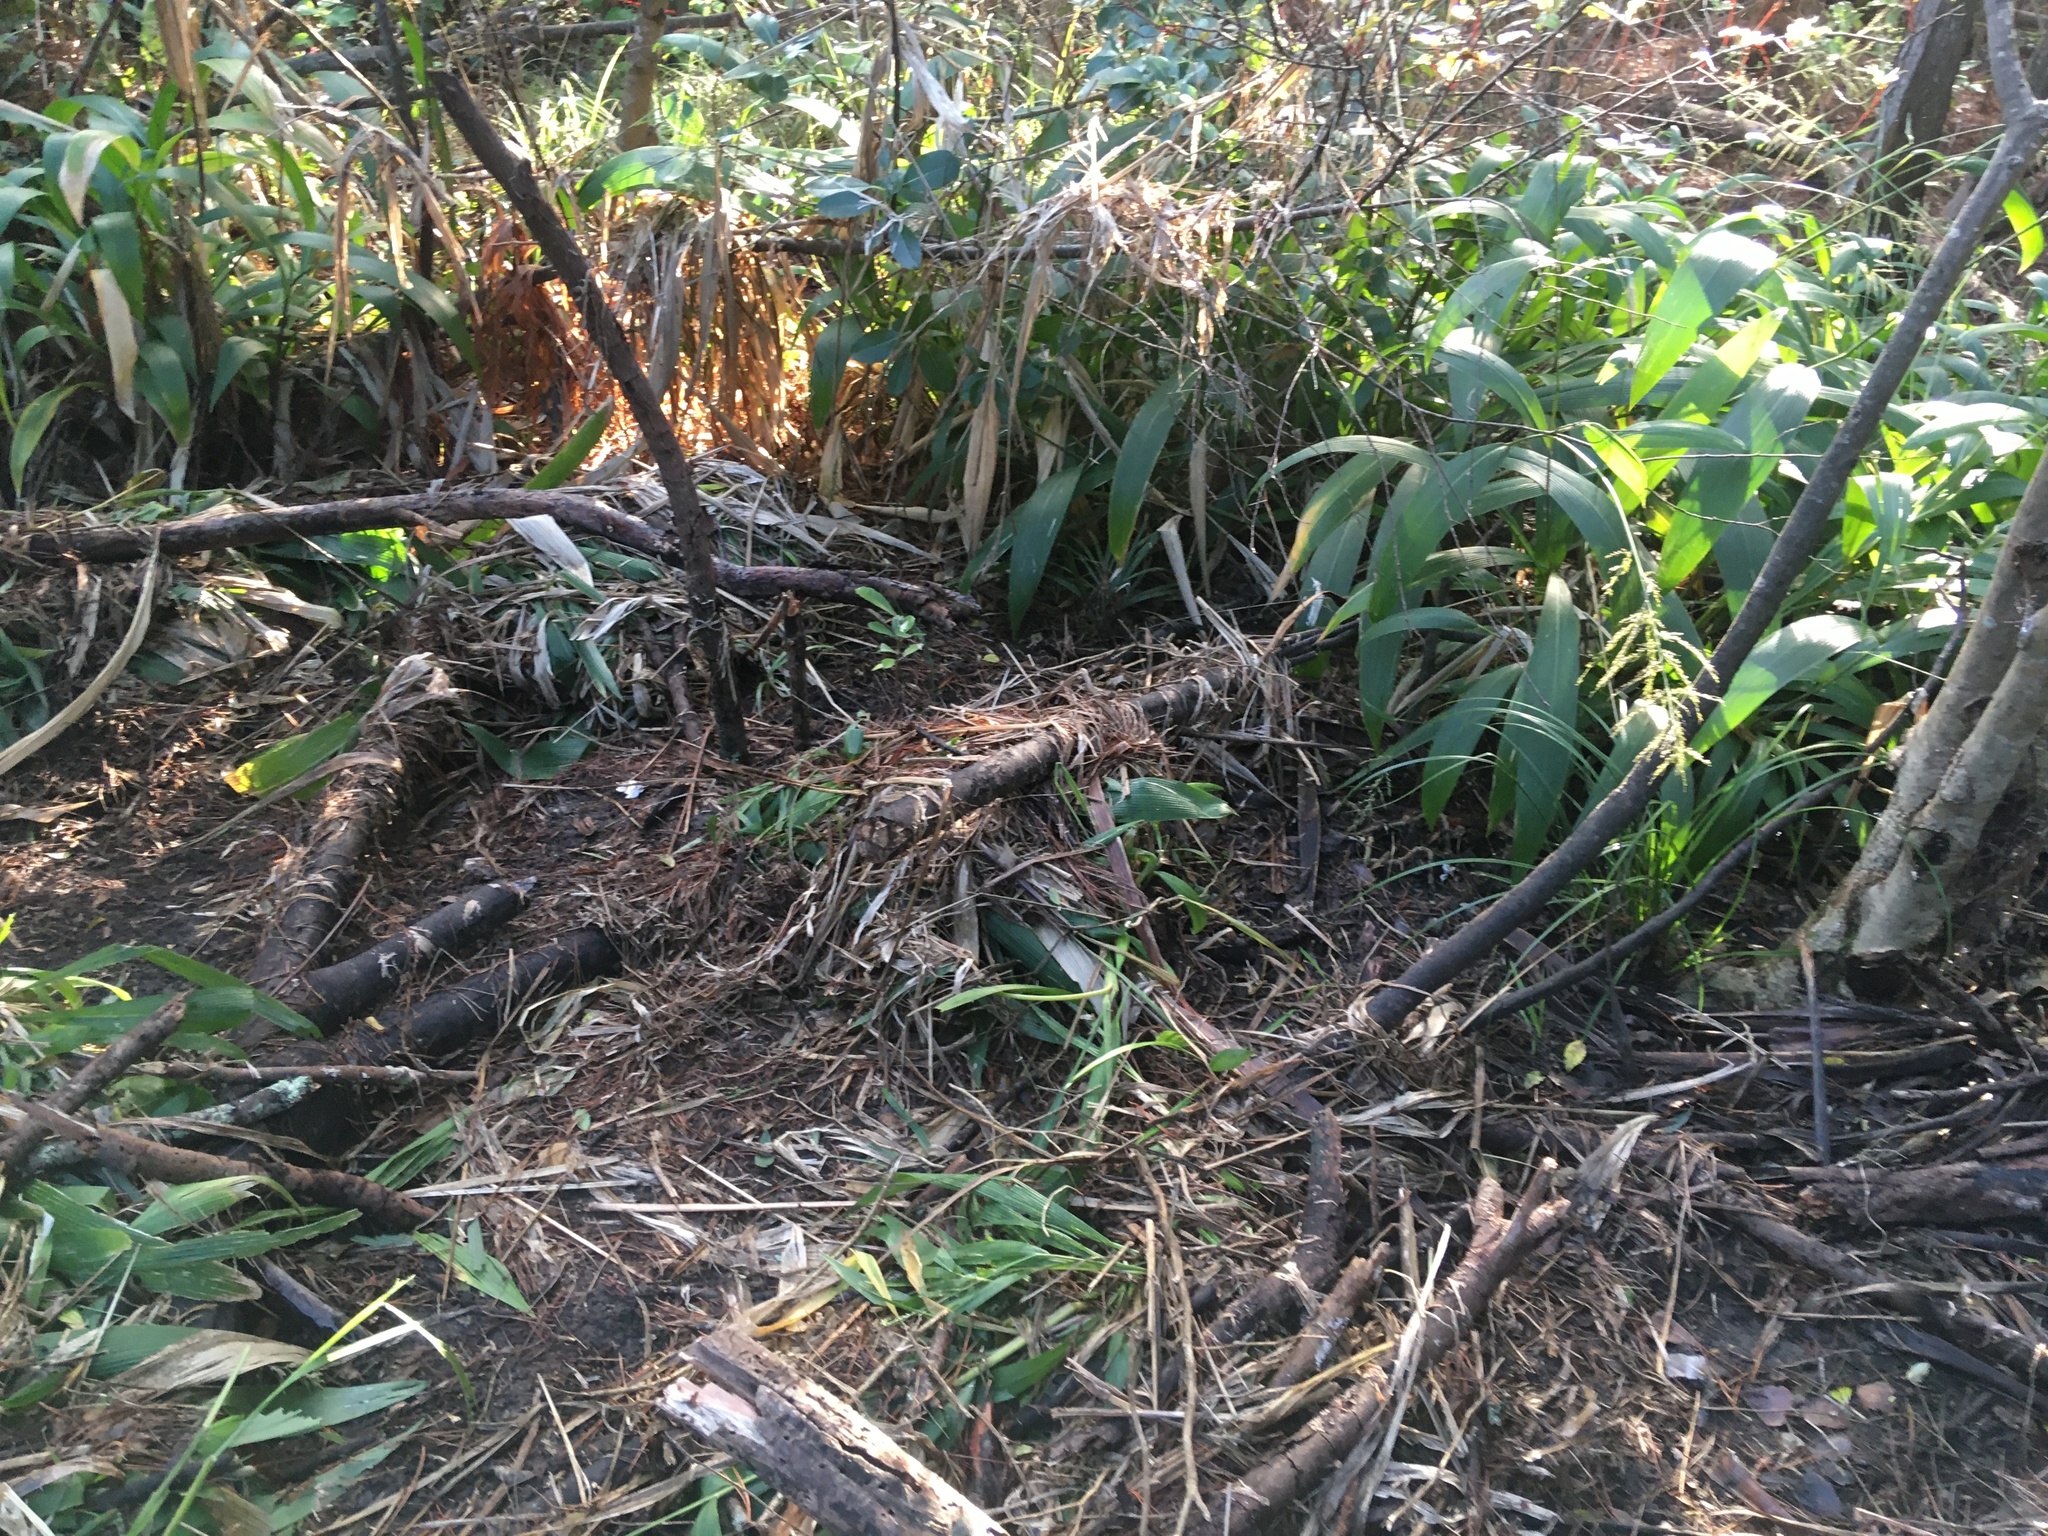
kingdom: Plantae
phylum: Tracheophyta
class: Liliopsida
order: Poales
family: Poaceae
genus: Setaria
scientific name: Setaria palmifolia
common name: Broadleaved bristlegrass
